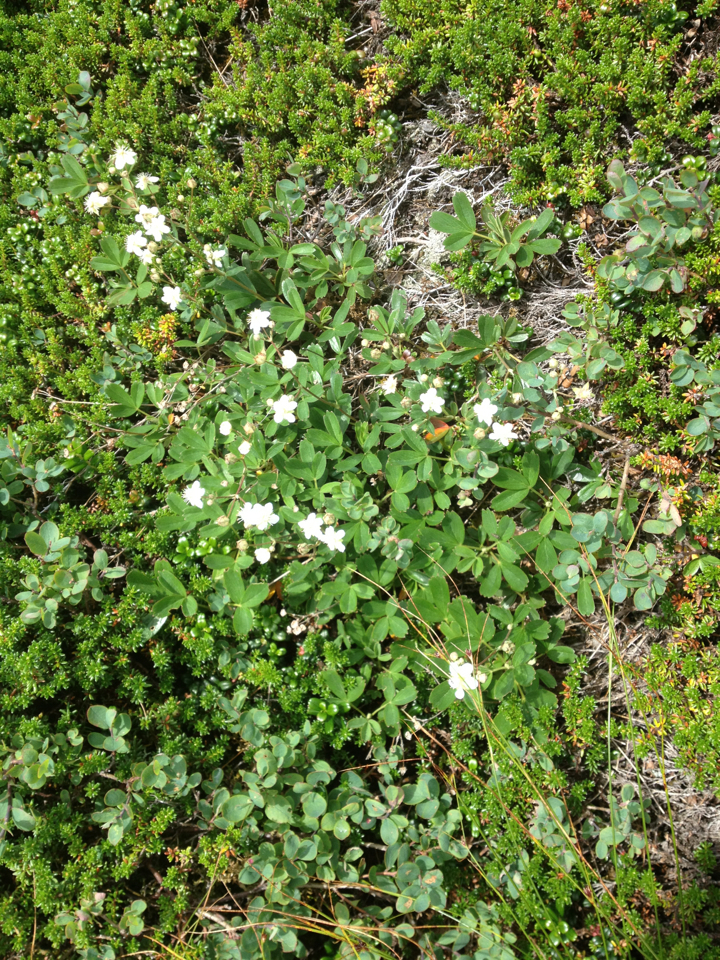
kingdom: Plantae
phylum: Tracheophyta
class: Magnoliopsida
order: Rosales
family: Rosaceae
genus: Sibbaldia
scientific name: Sibbaldia tridentata
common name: Three-toothed cinquefoil
